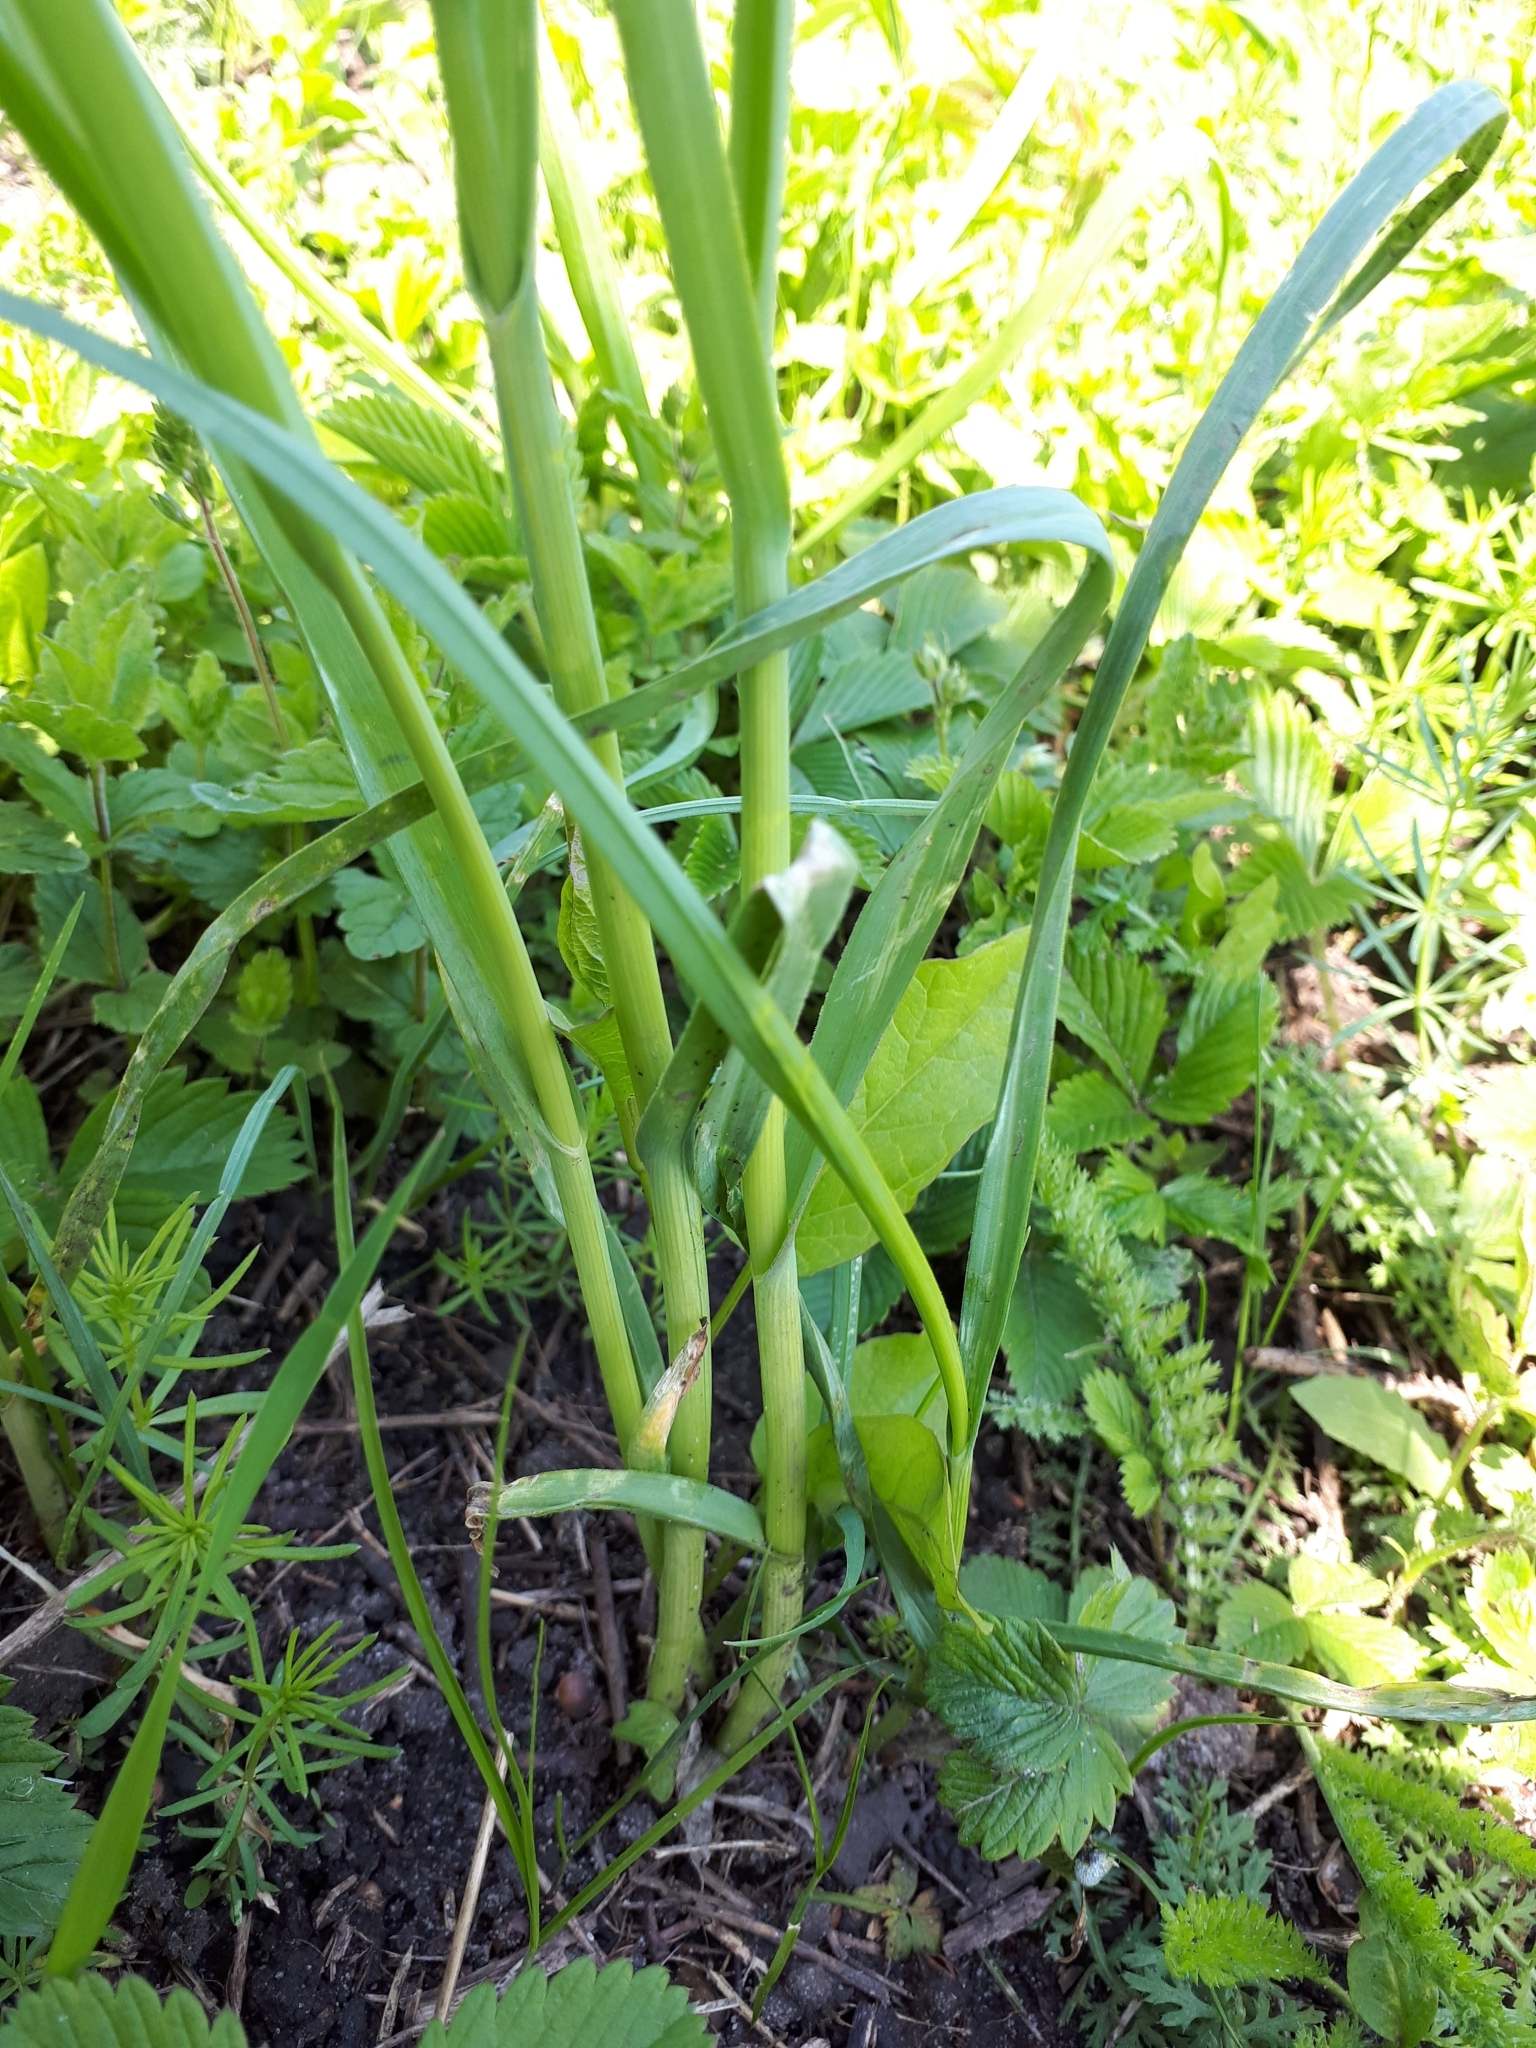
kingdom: Plantae
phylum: Tracheophyta
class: Liliopsida
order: Asparagales
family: Amaryllidaceae
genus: Allium
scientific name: Allium rotundum
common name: Sand leek
